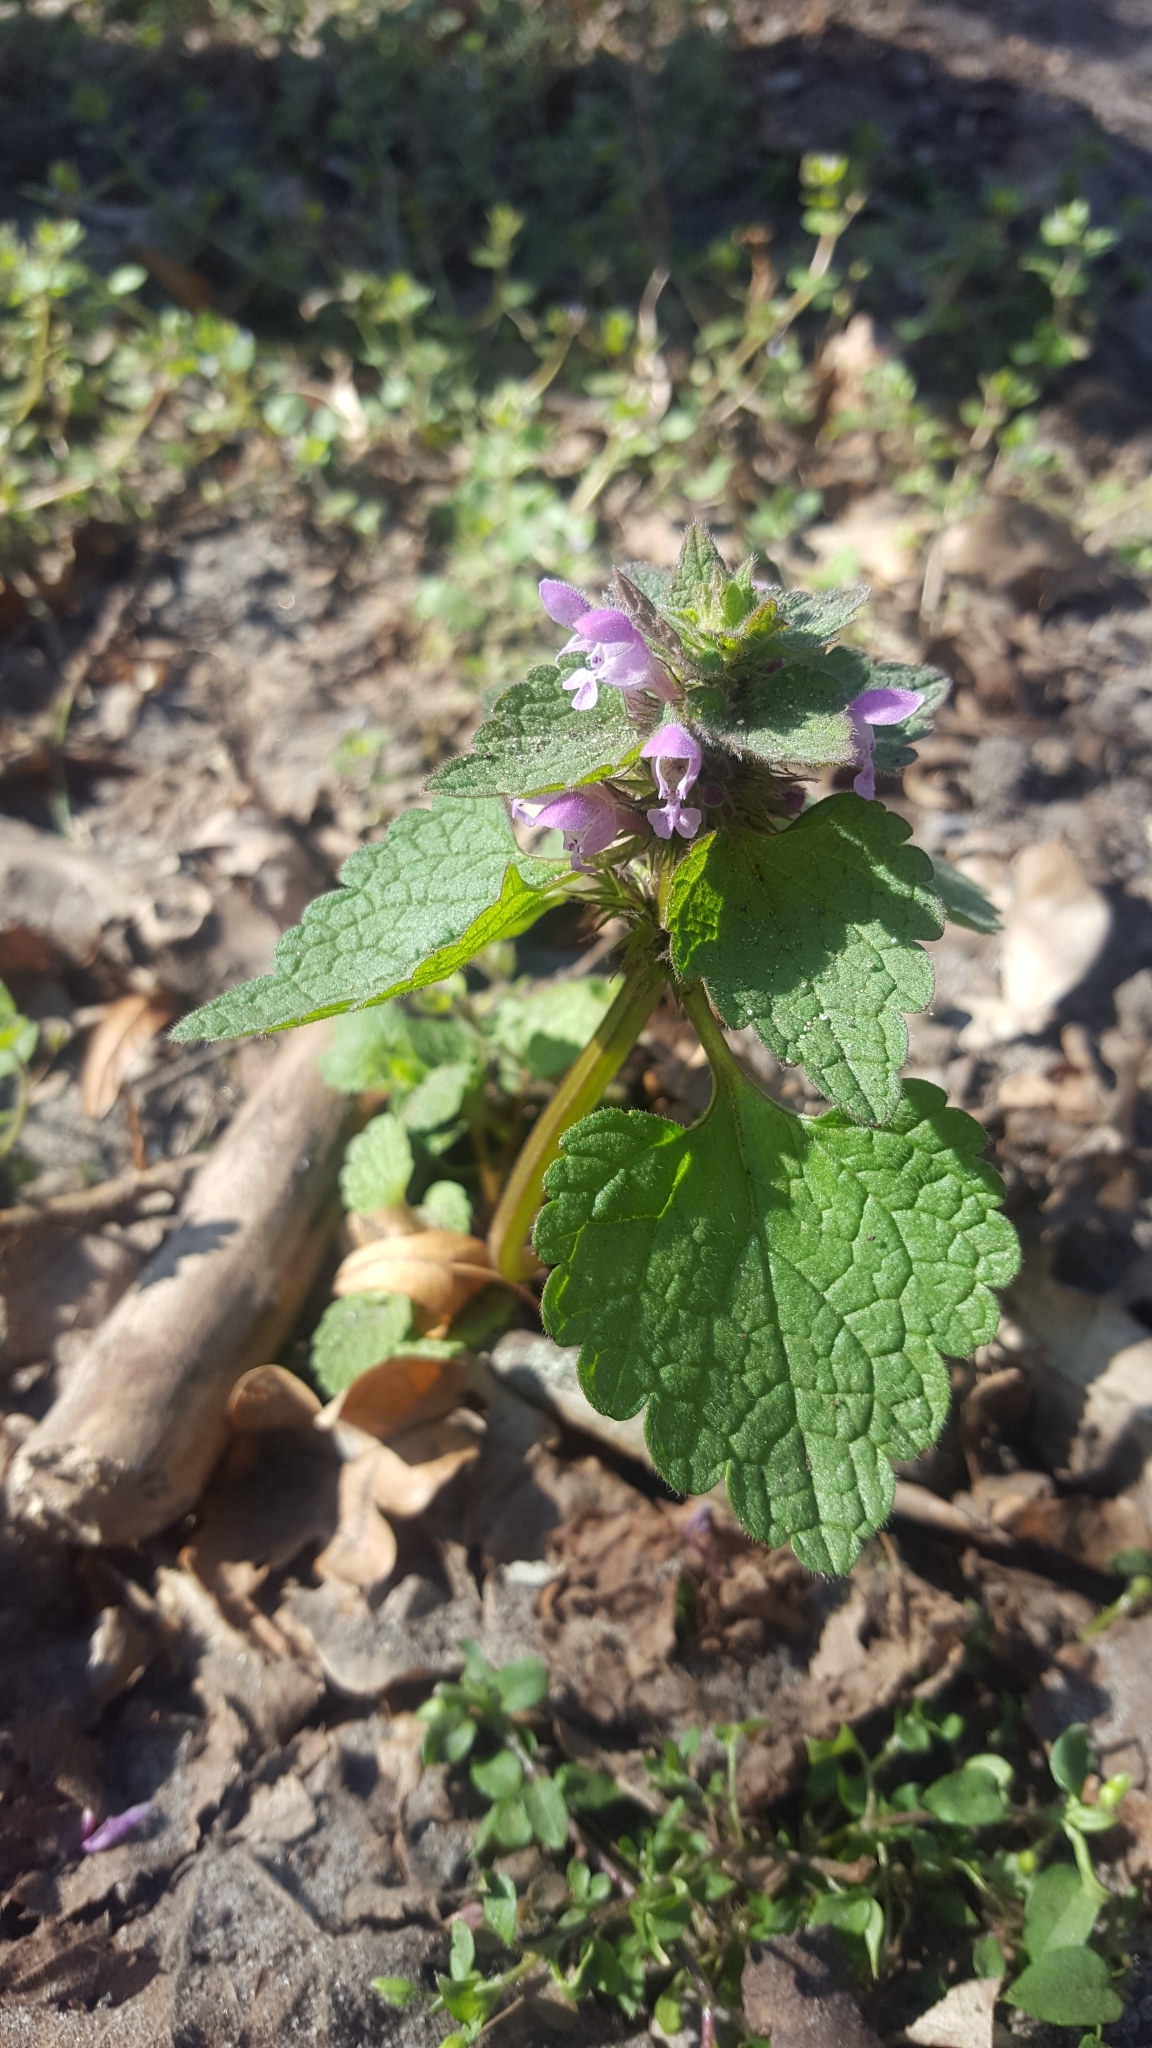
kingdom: Plantae
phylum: Tracheophyta
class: Magnoliopsida
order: Lamiales
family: Lamiaceae
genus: Lamium
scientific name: Lamium purpureum
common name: Red dead-nettle
